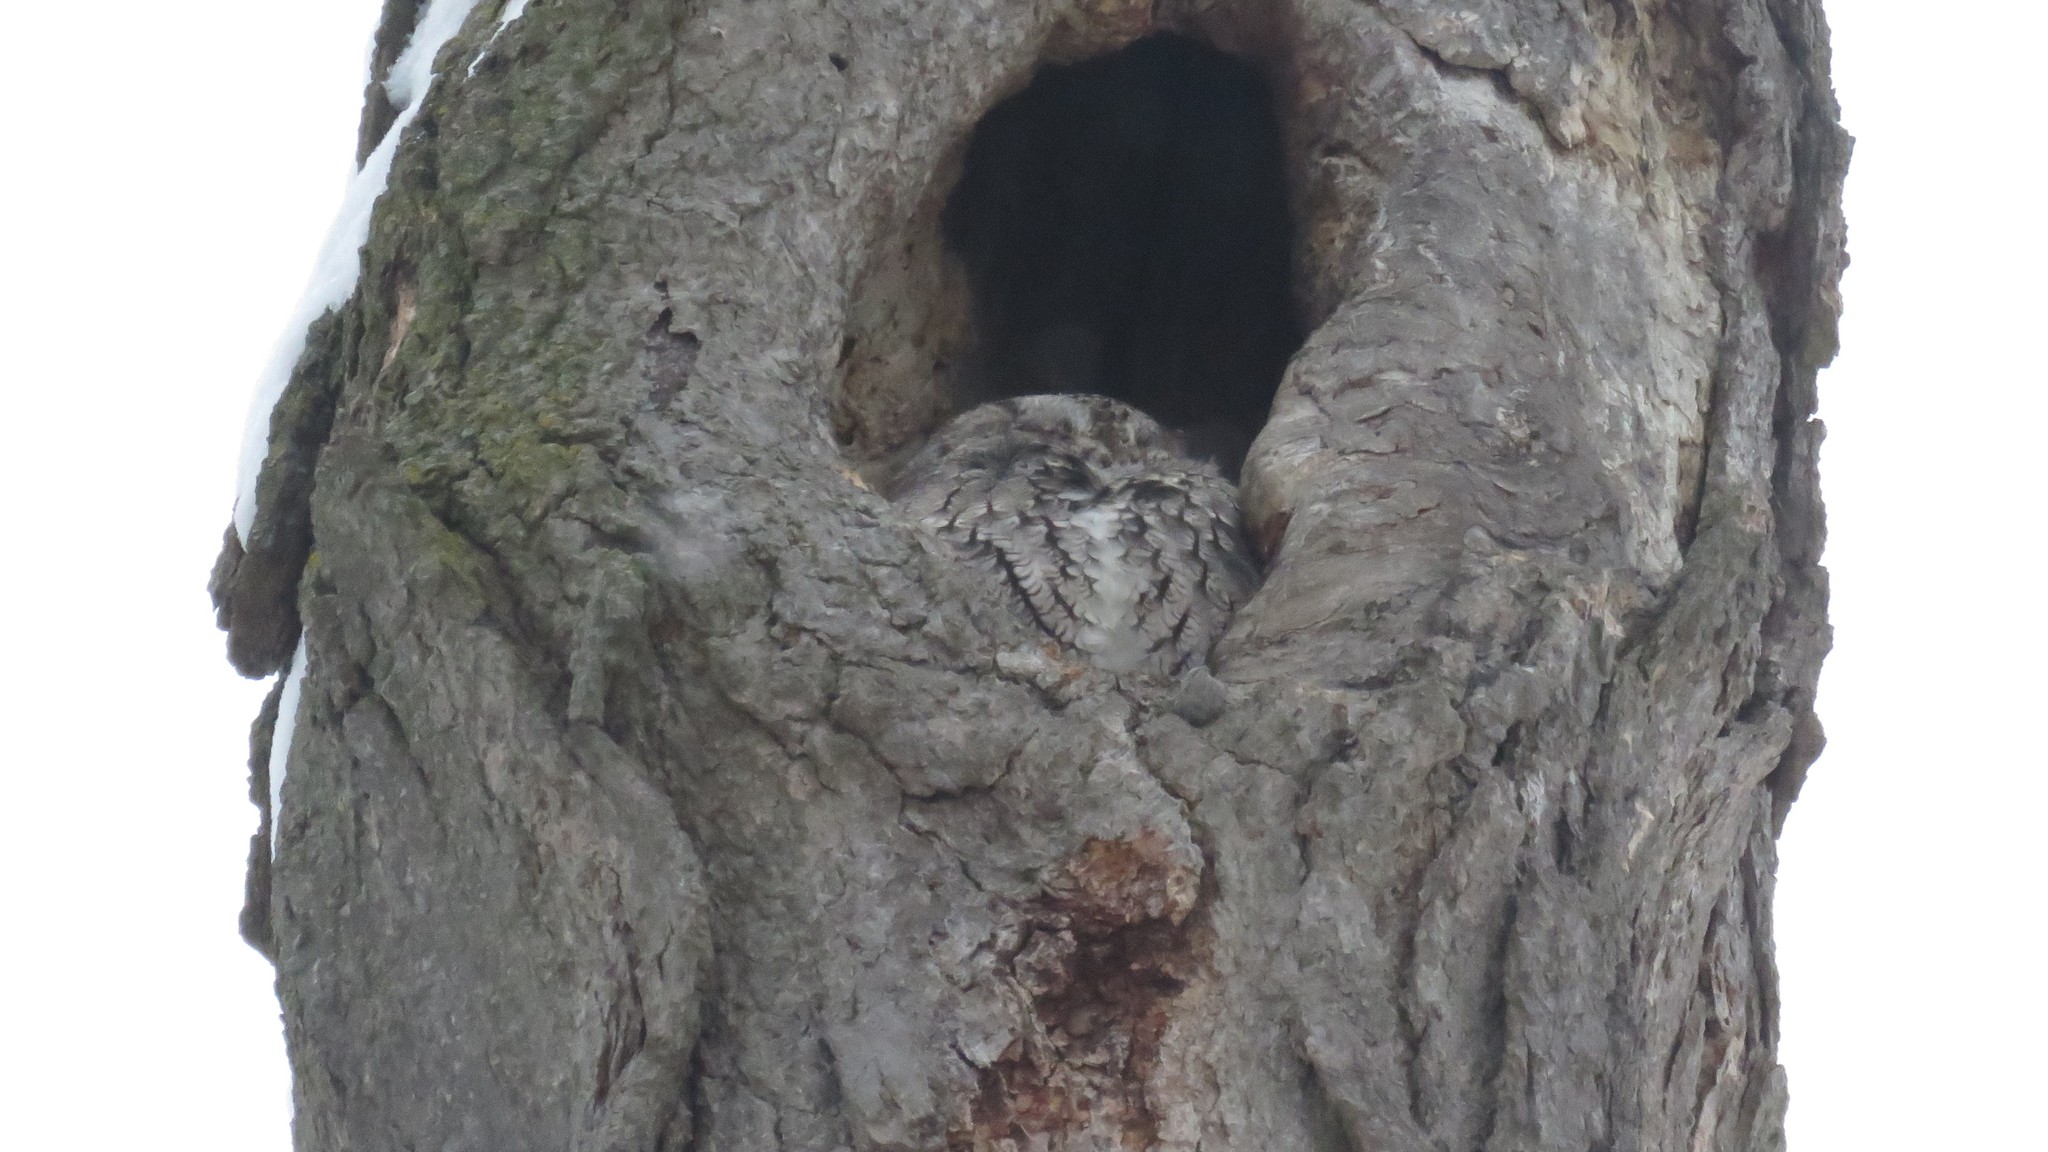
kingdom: Animalia
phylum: Chordata
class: Aves
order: Strigiformes
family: Strigidae
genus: Megascops
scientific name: Megascops asio
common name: Eastern screech-owl
